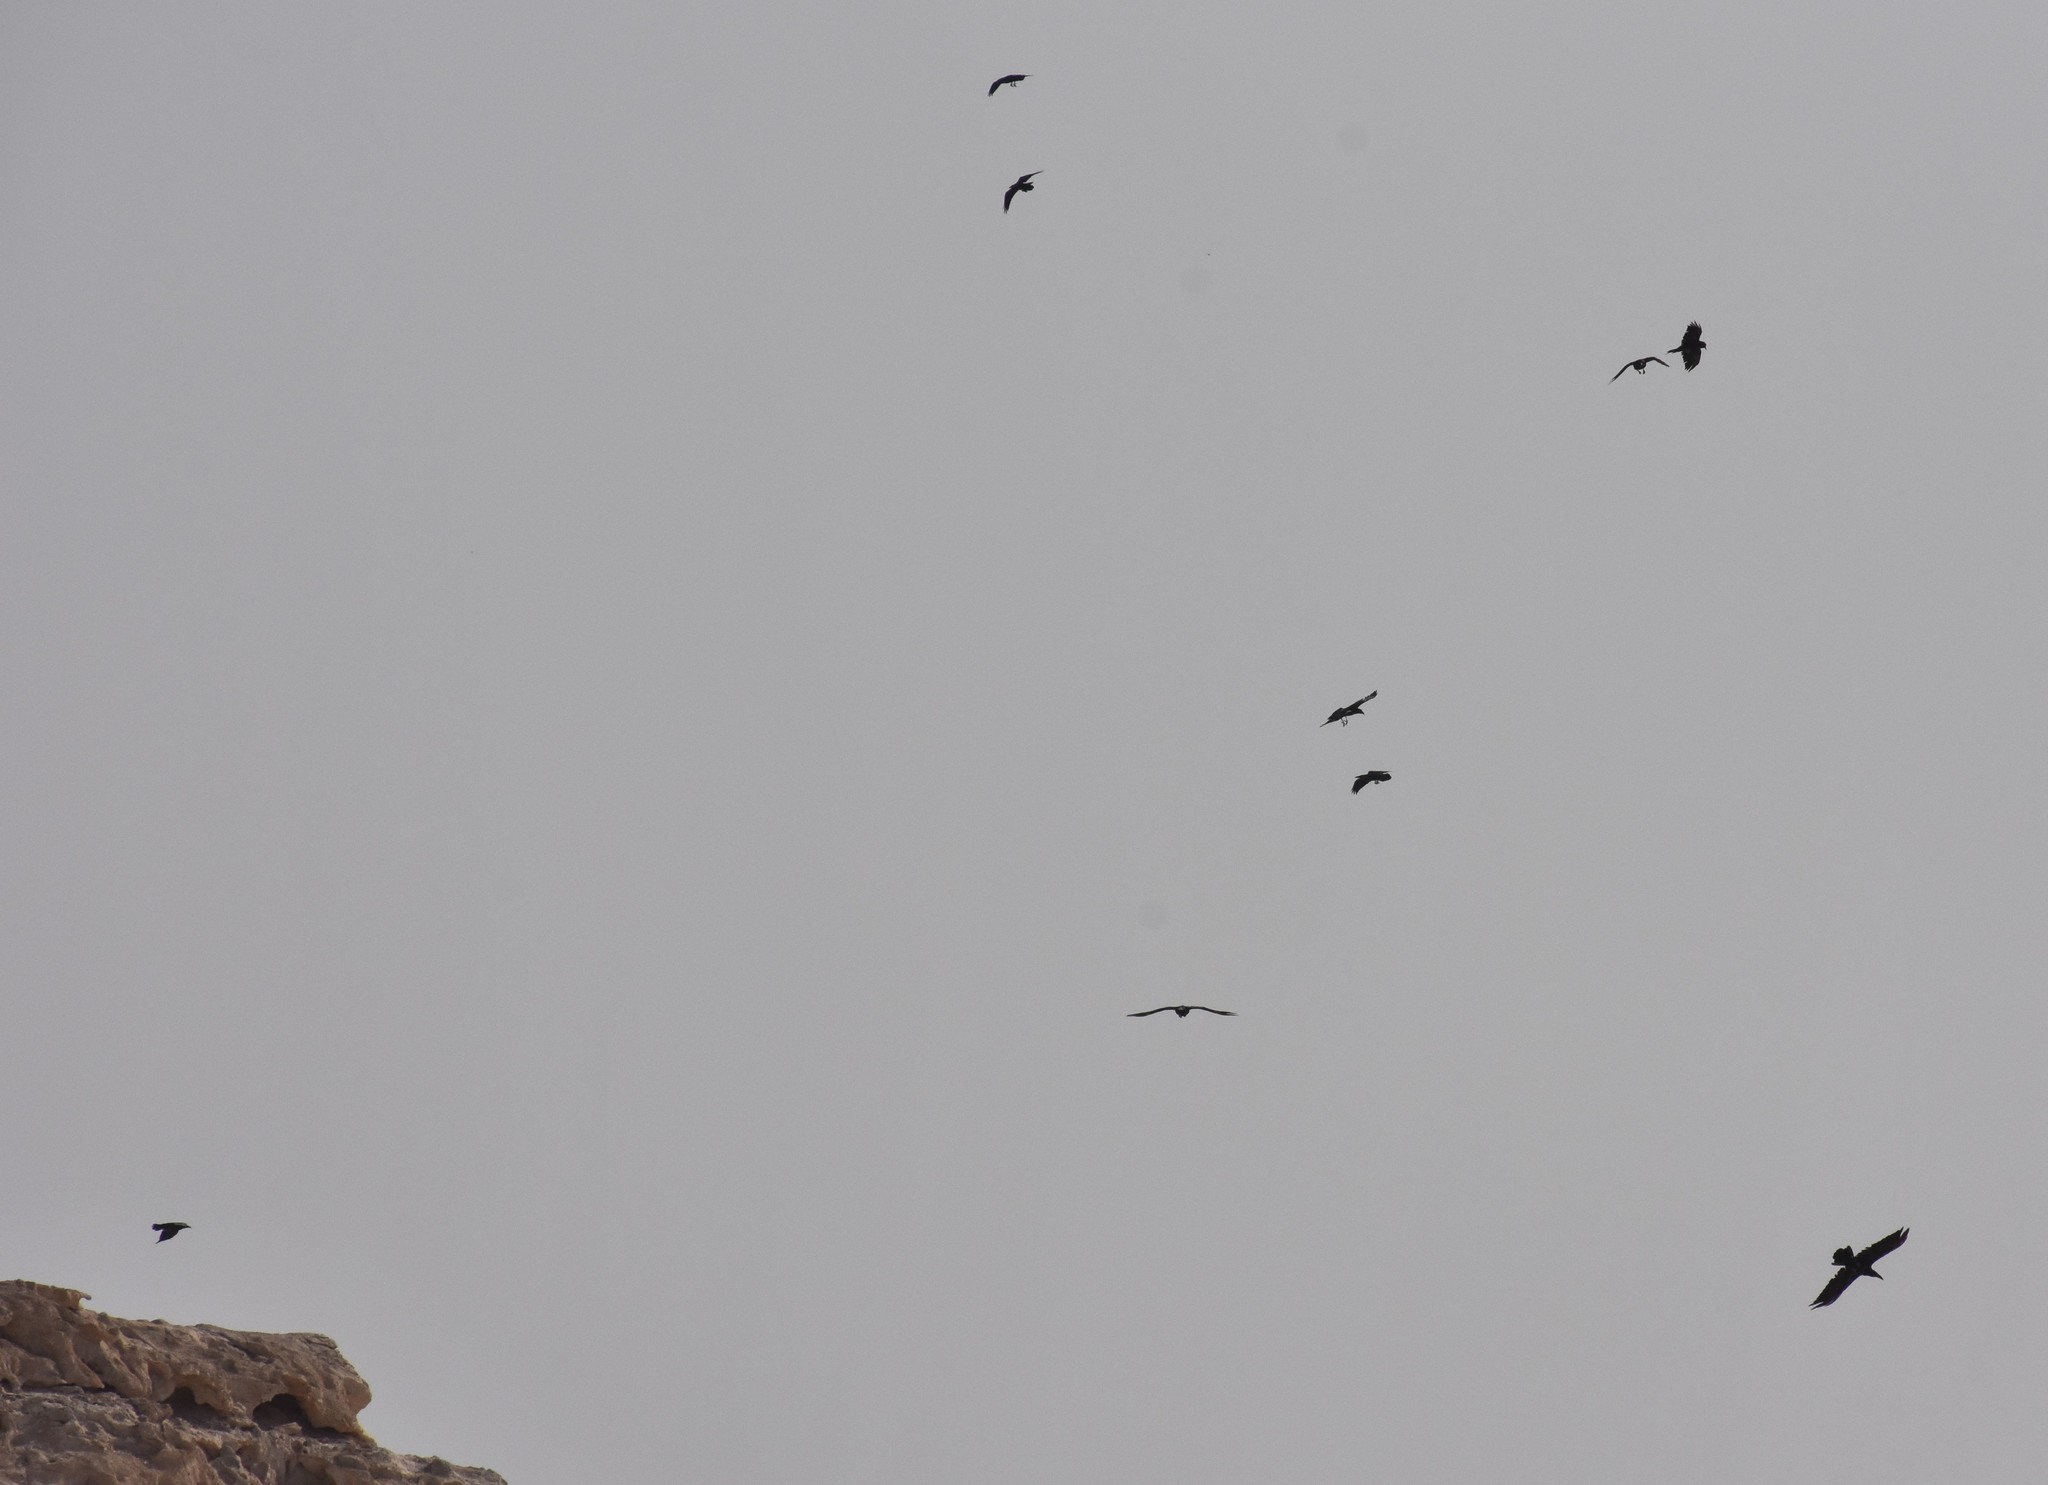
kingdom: Animalia
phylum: Chordata
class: Aves
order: Passeriformes
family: Corvidae
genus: Corvus
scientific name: Corvus ruficollis
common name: Brown-necked raven
